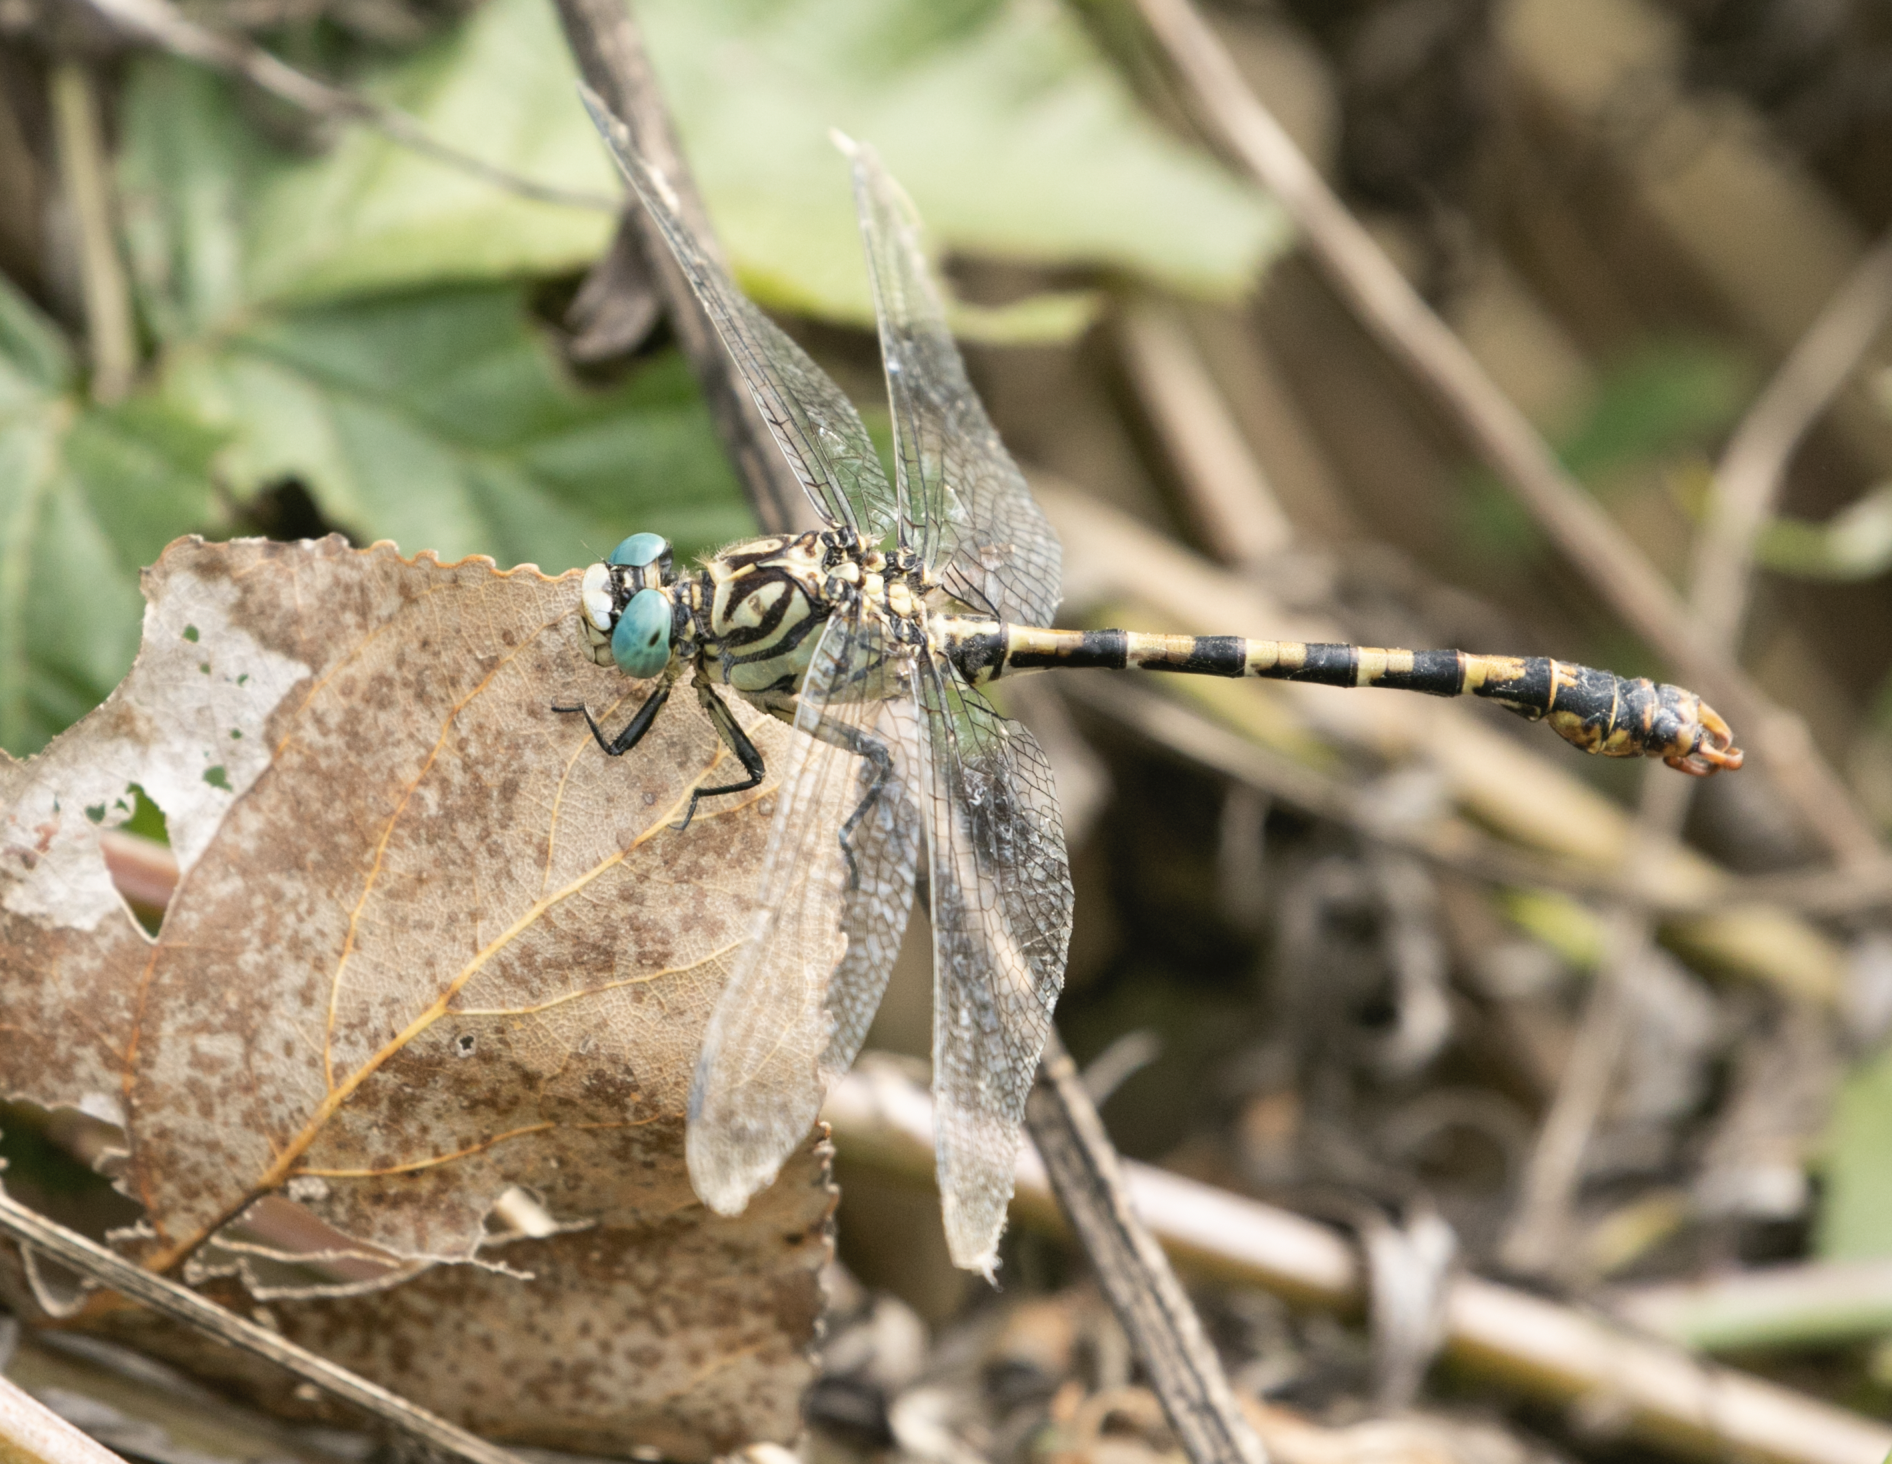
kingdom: Animalia
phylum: Arthropoda
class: Insecta
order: Odonata
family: Gomphidae
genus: Onychogomphus
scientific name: Onychogomphus forcipatus
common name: Small pincertail
